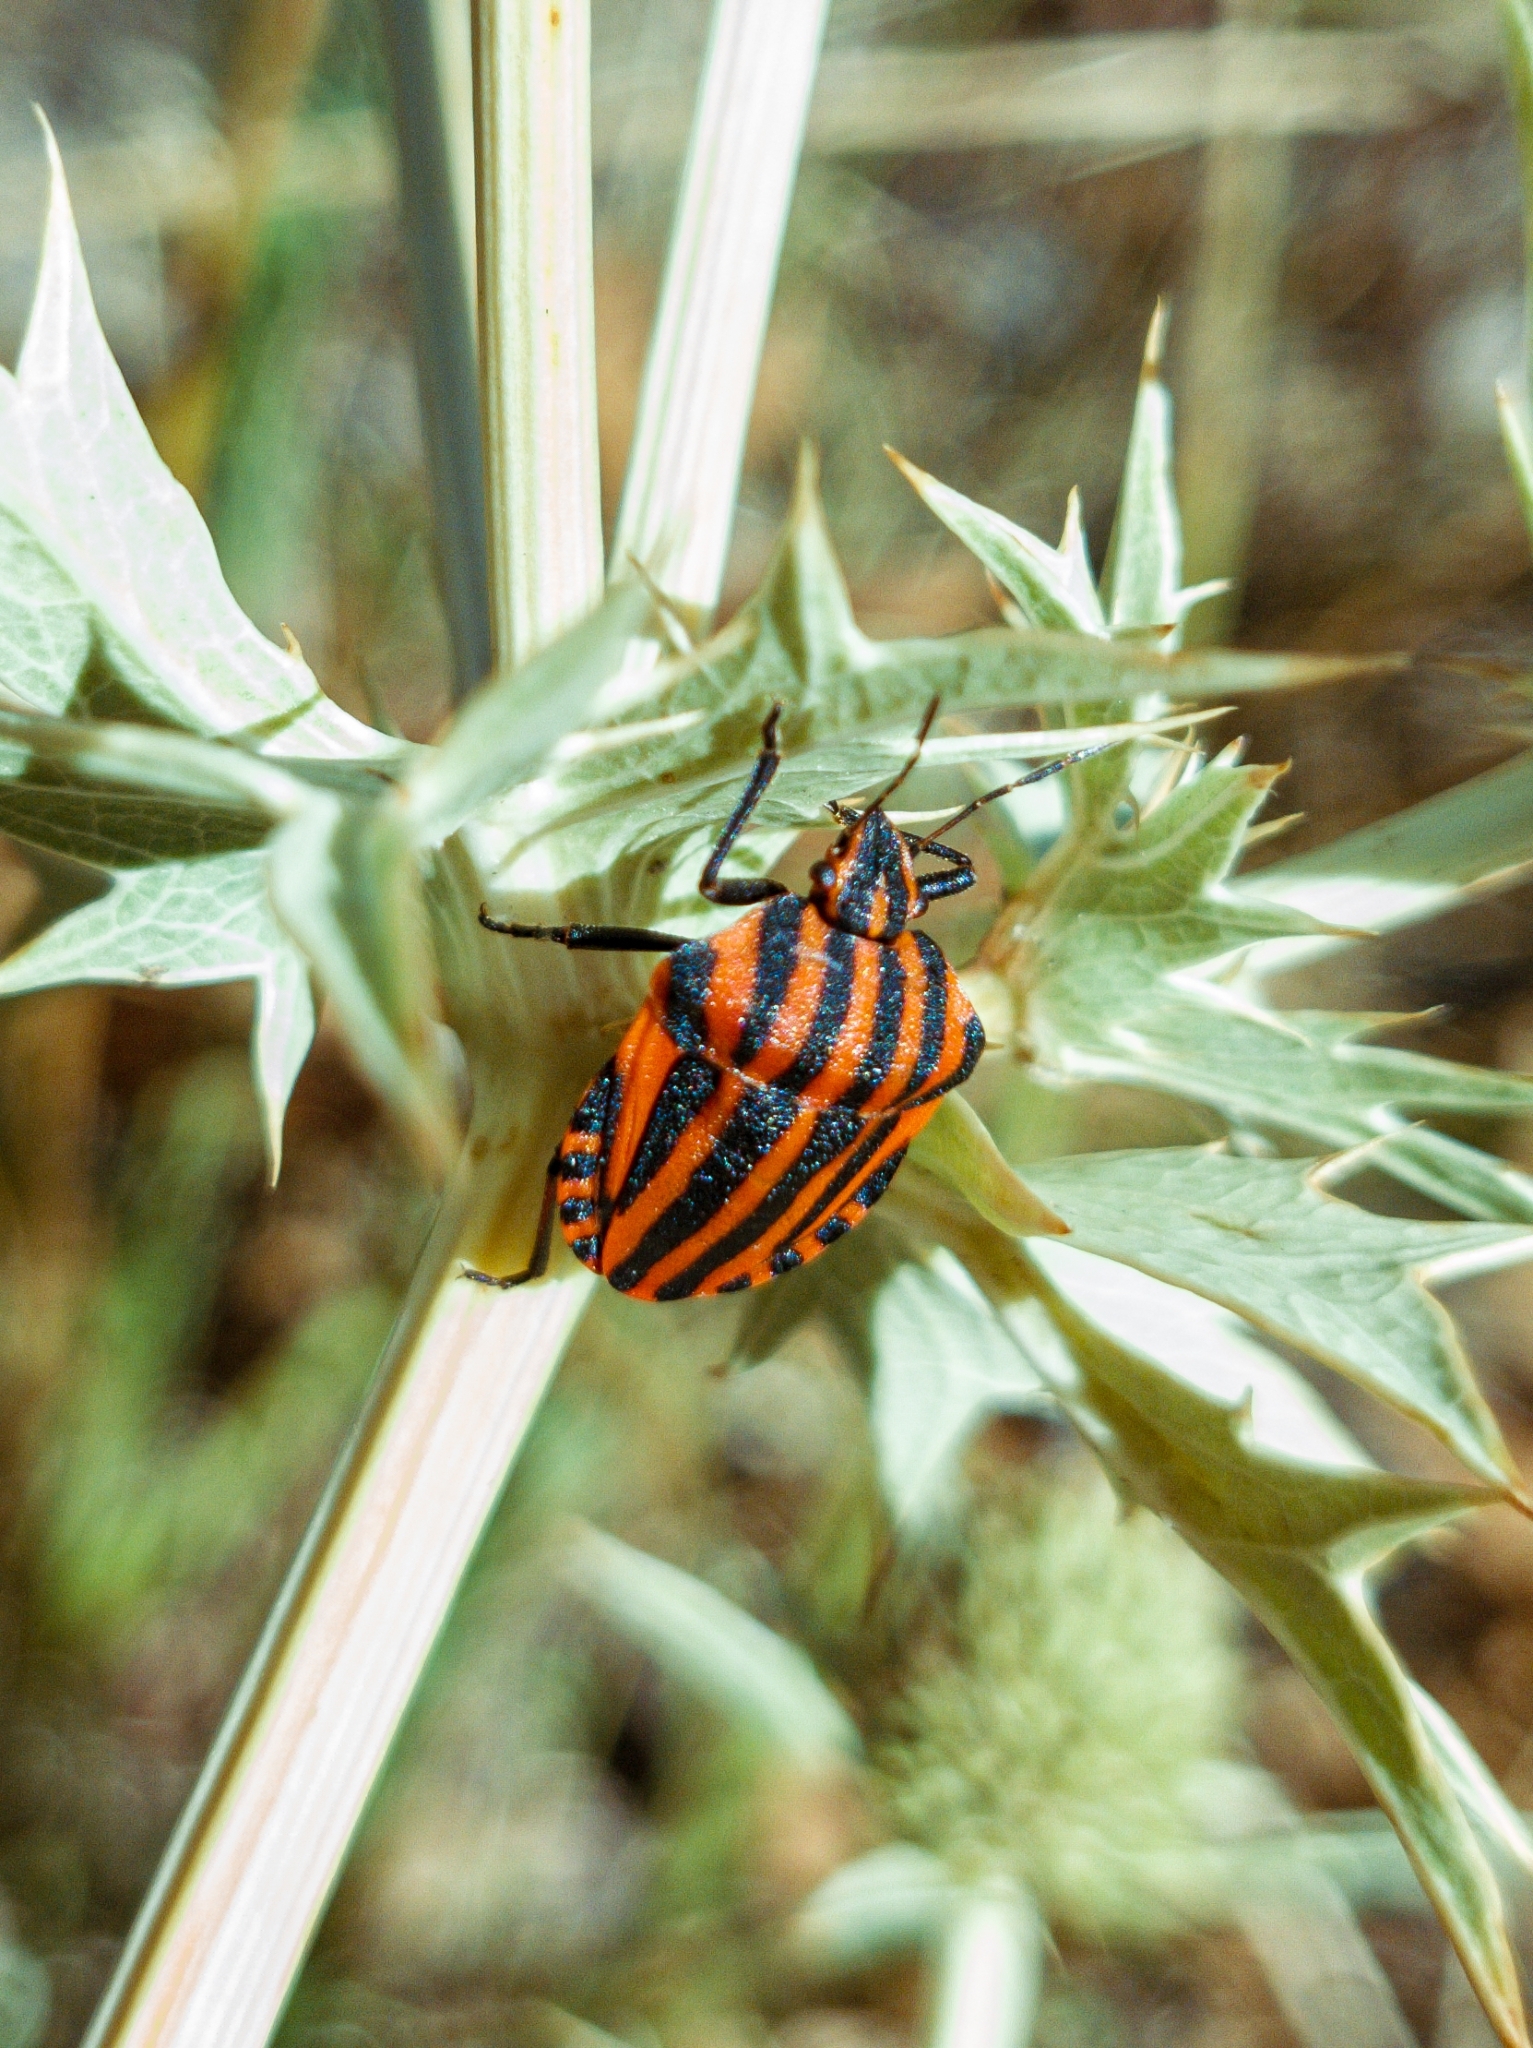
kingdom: Animalia
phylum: Arthropoda
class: Insecta
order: Hemiptera
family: Pentatomidae
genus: Graphosoma
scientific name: Graphosoma italicum
